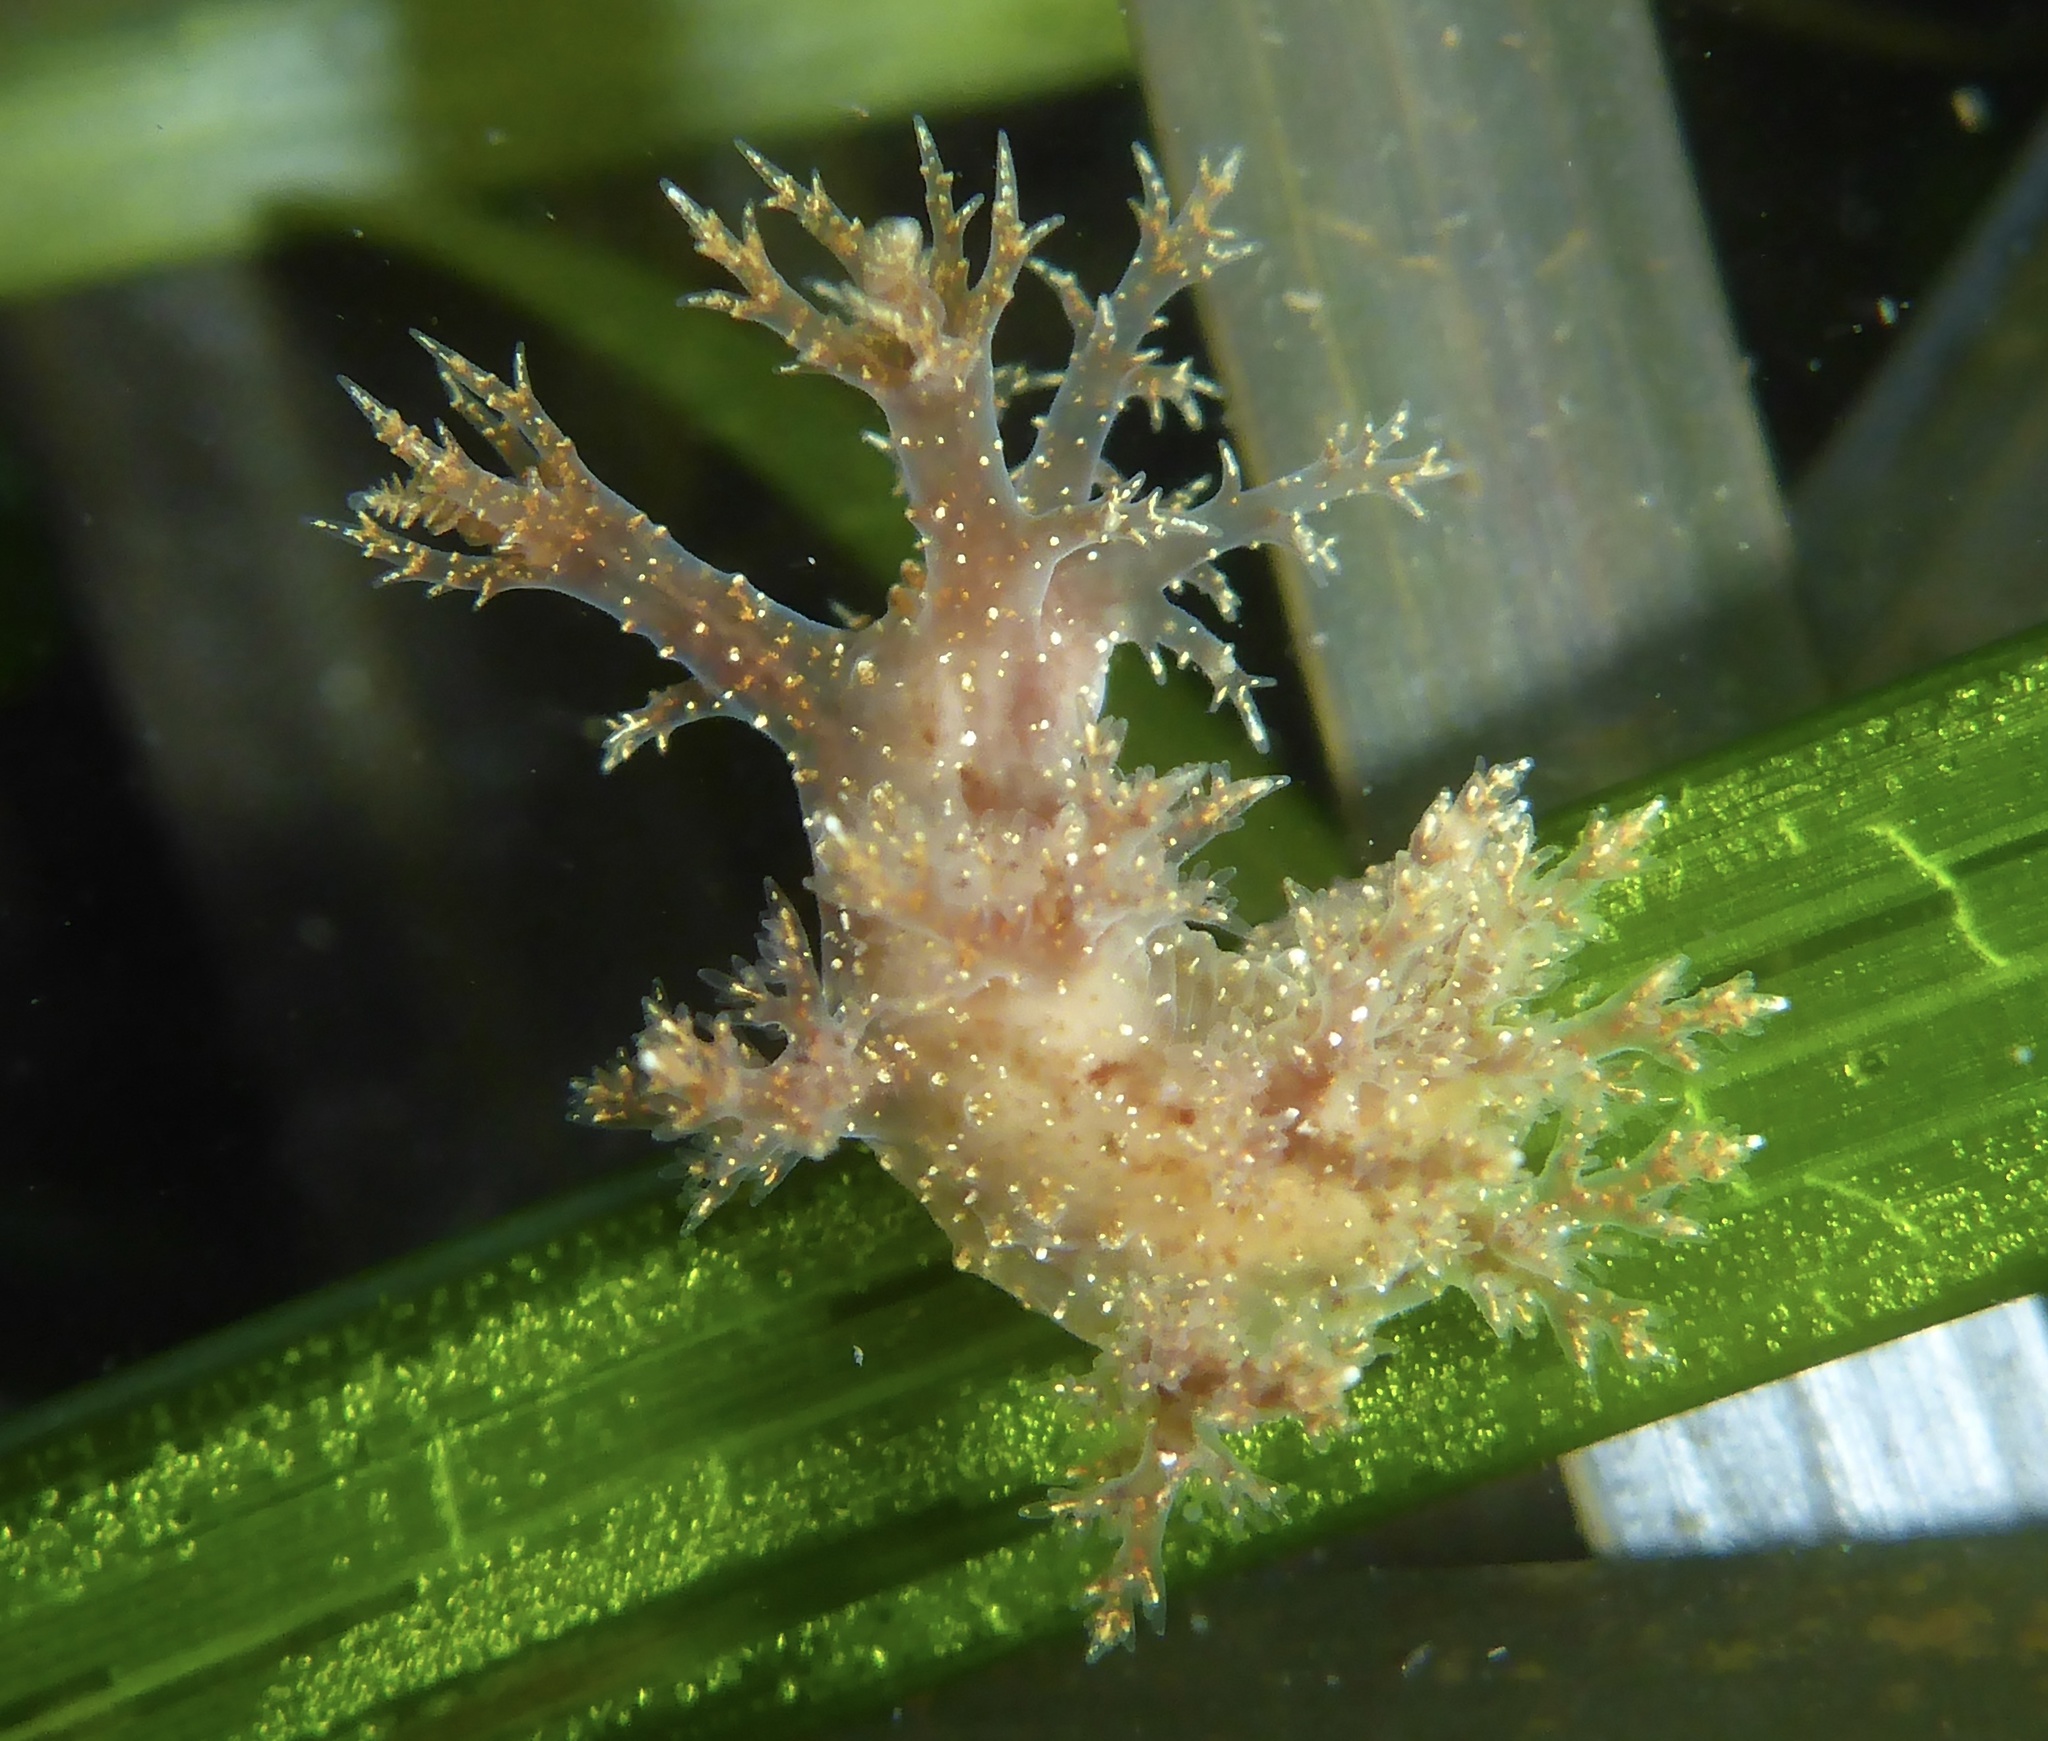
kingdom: Animalia
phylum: Mollusca
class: Gastropoda
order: Nudibranchia
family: Dendronotidae
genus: Dendronotus
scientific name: Dendronotus venustus
